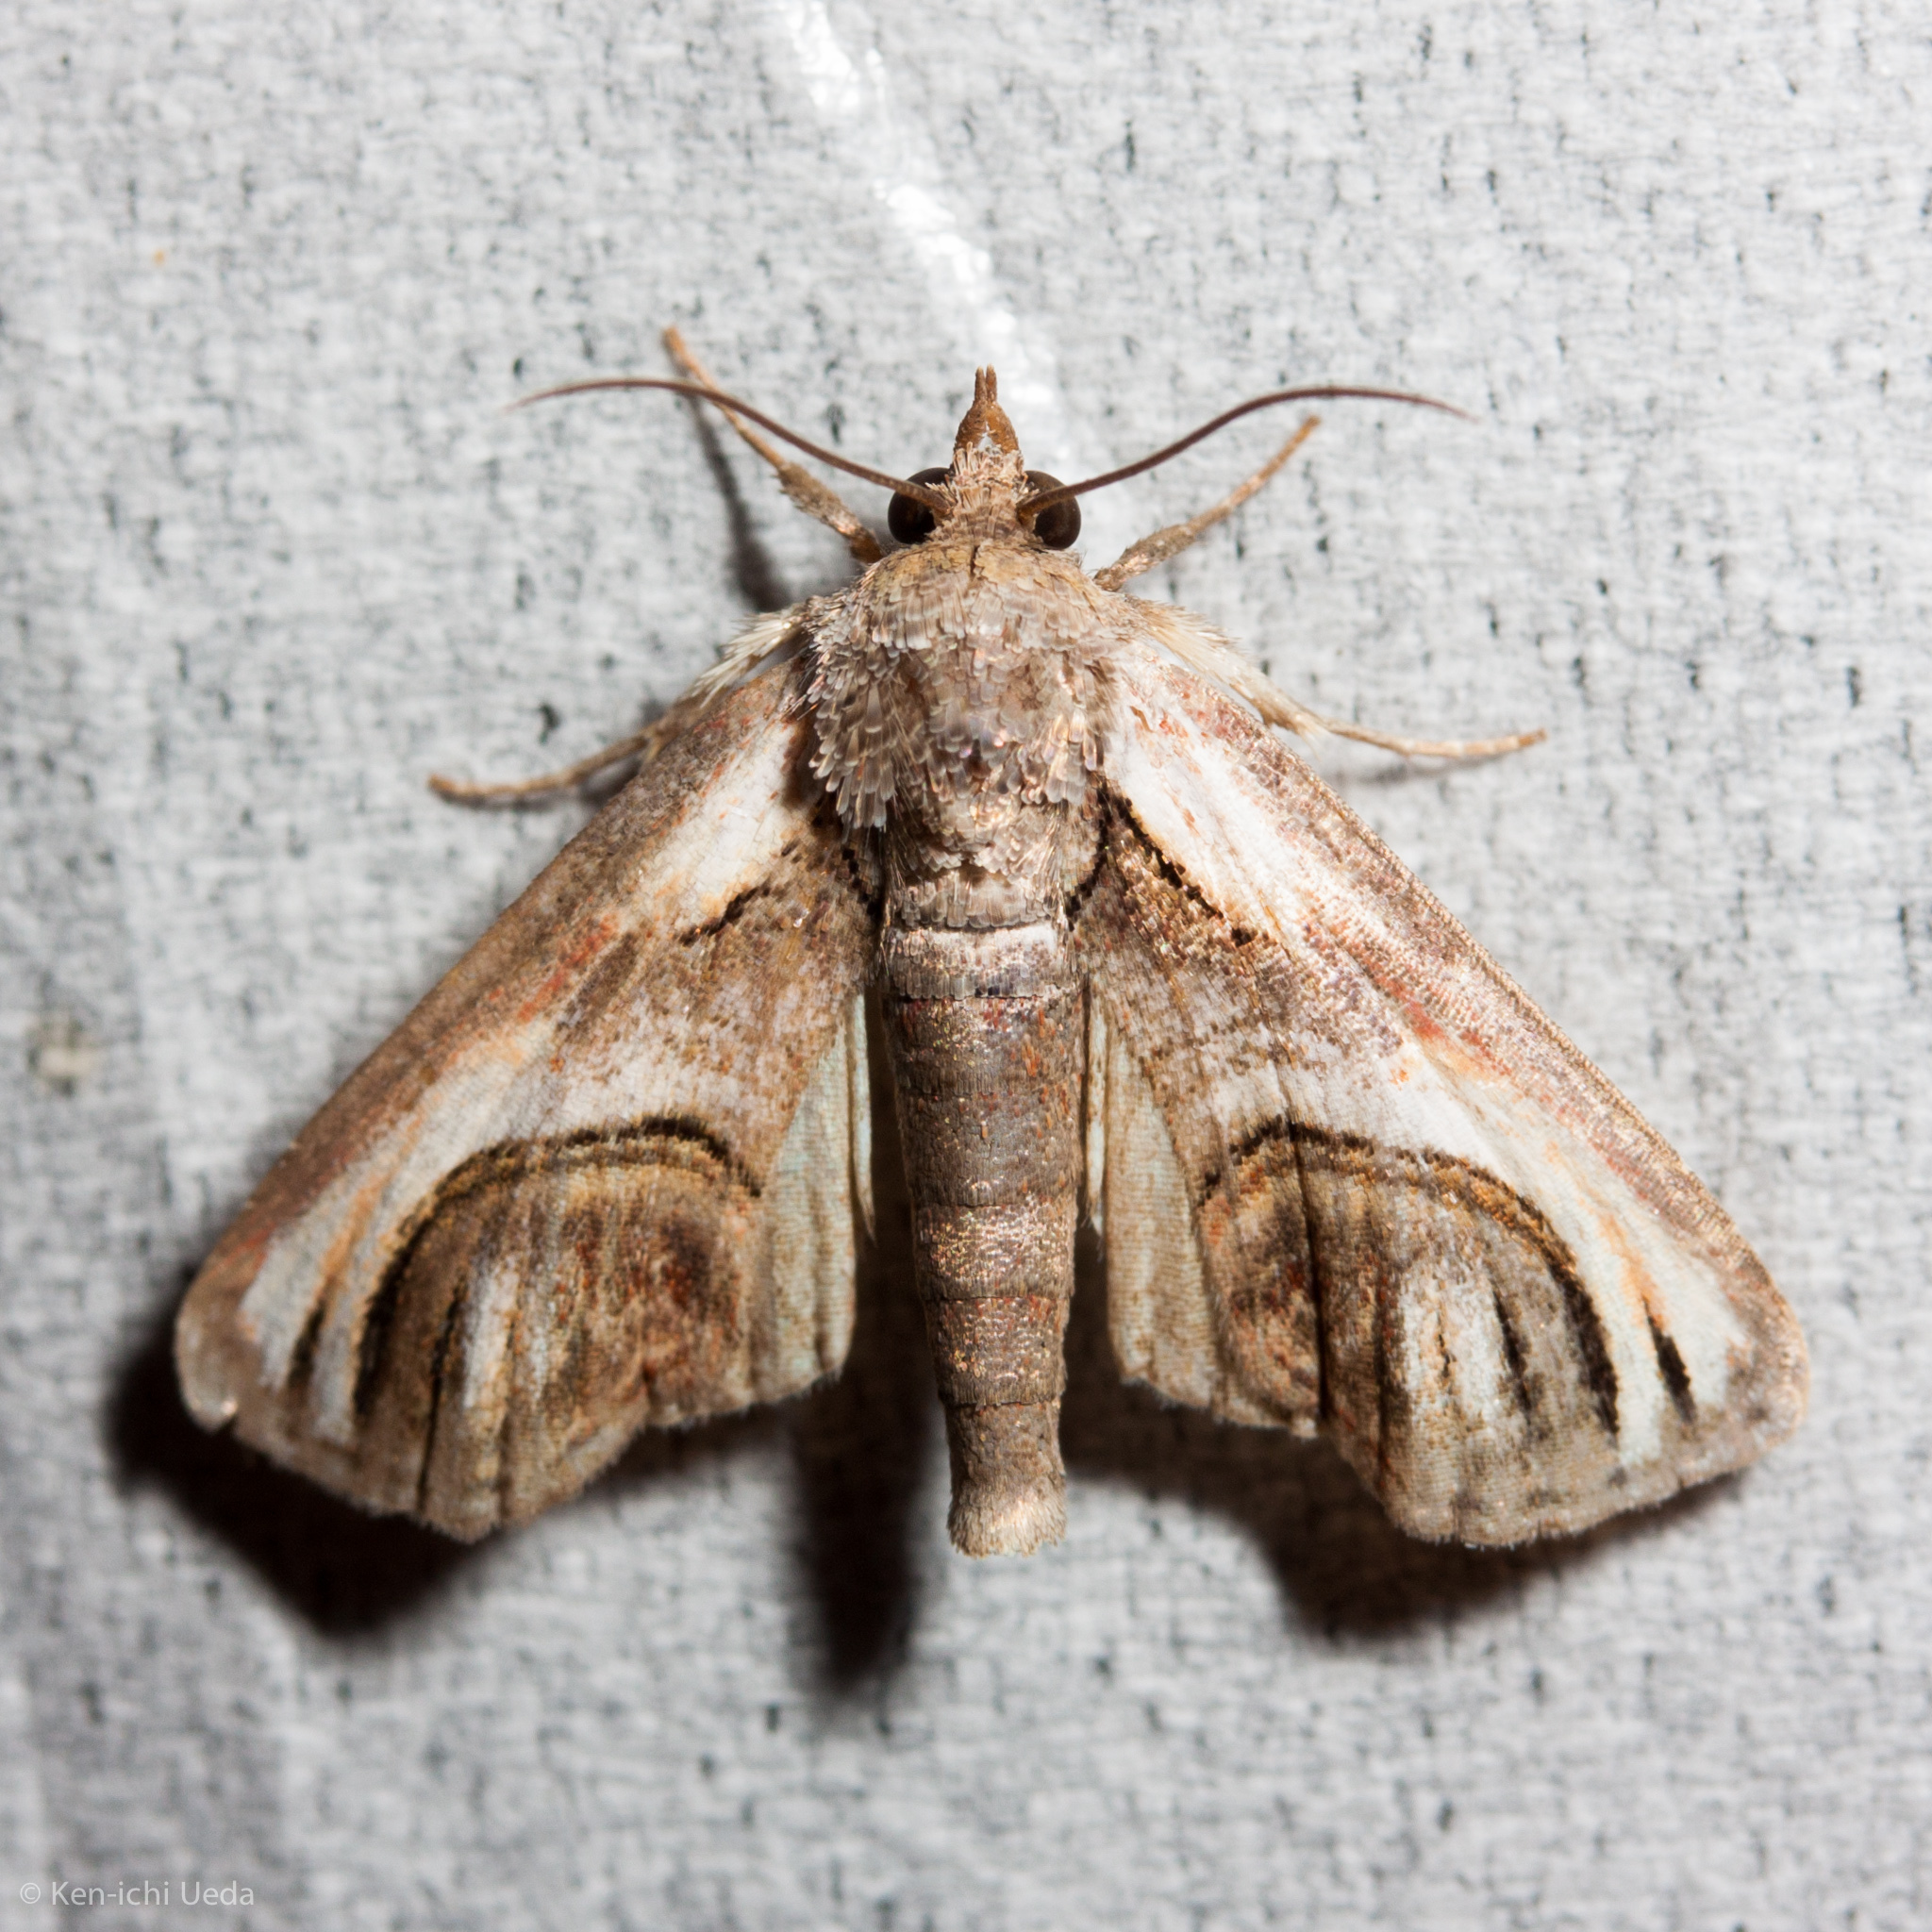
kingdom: Animalia
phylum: Arthropoda
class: Insecta
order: Lepidoptera
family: Euteliidae
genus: Paectes
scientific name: Paectes oculatrix
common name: Eyed paectes moth
